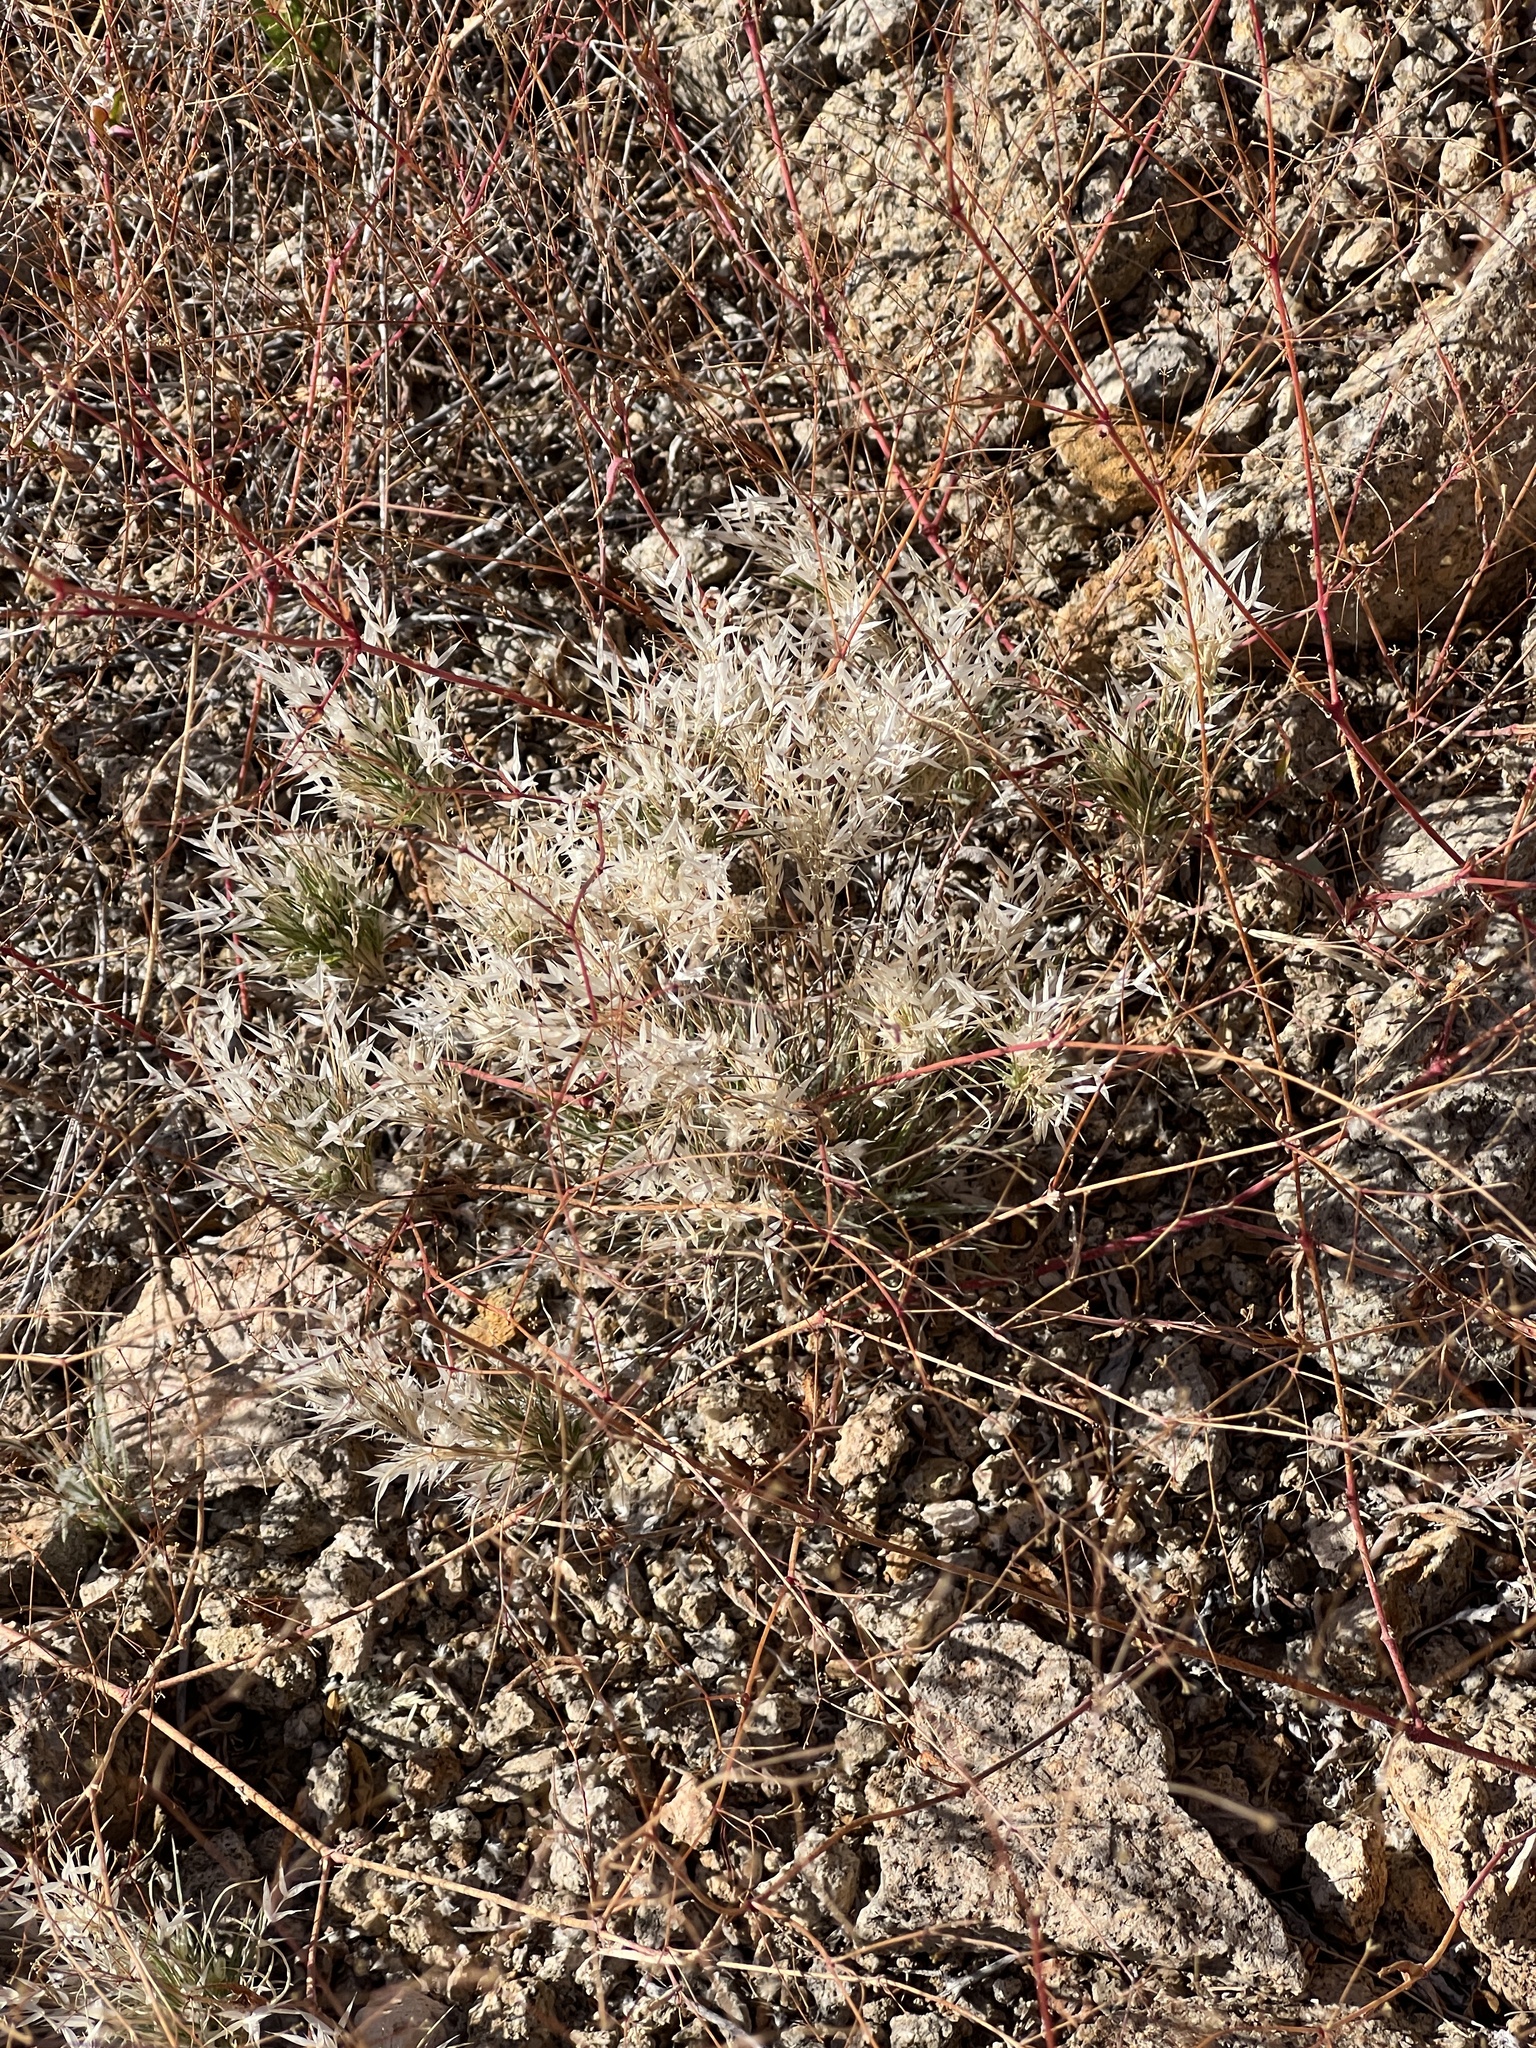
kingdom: Plantae
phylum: Tracheophyta
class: Liliopsida
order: Poales
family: Poaceae
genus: Dasyochloa
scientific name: Dasyochloa pulchella
